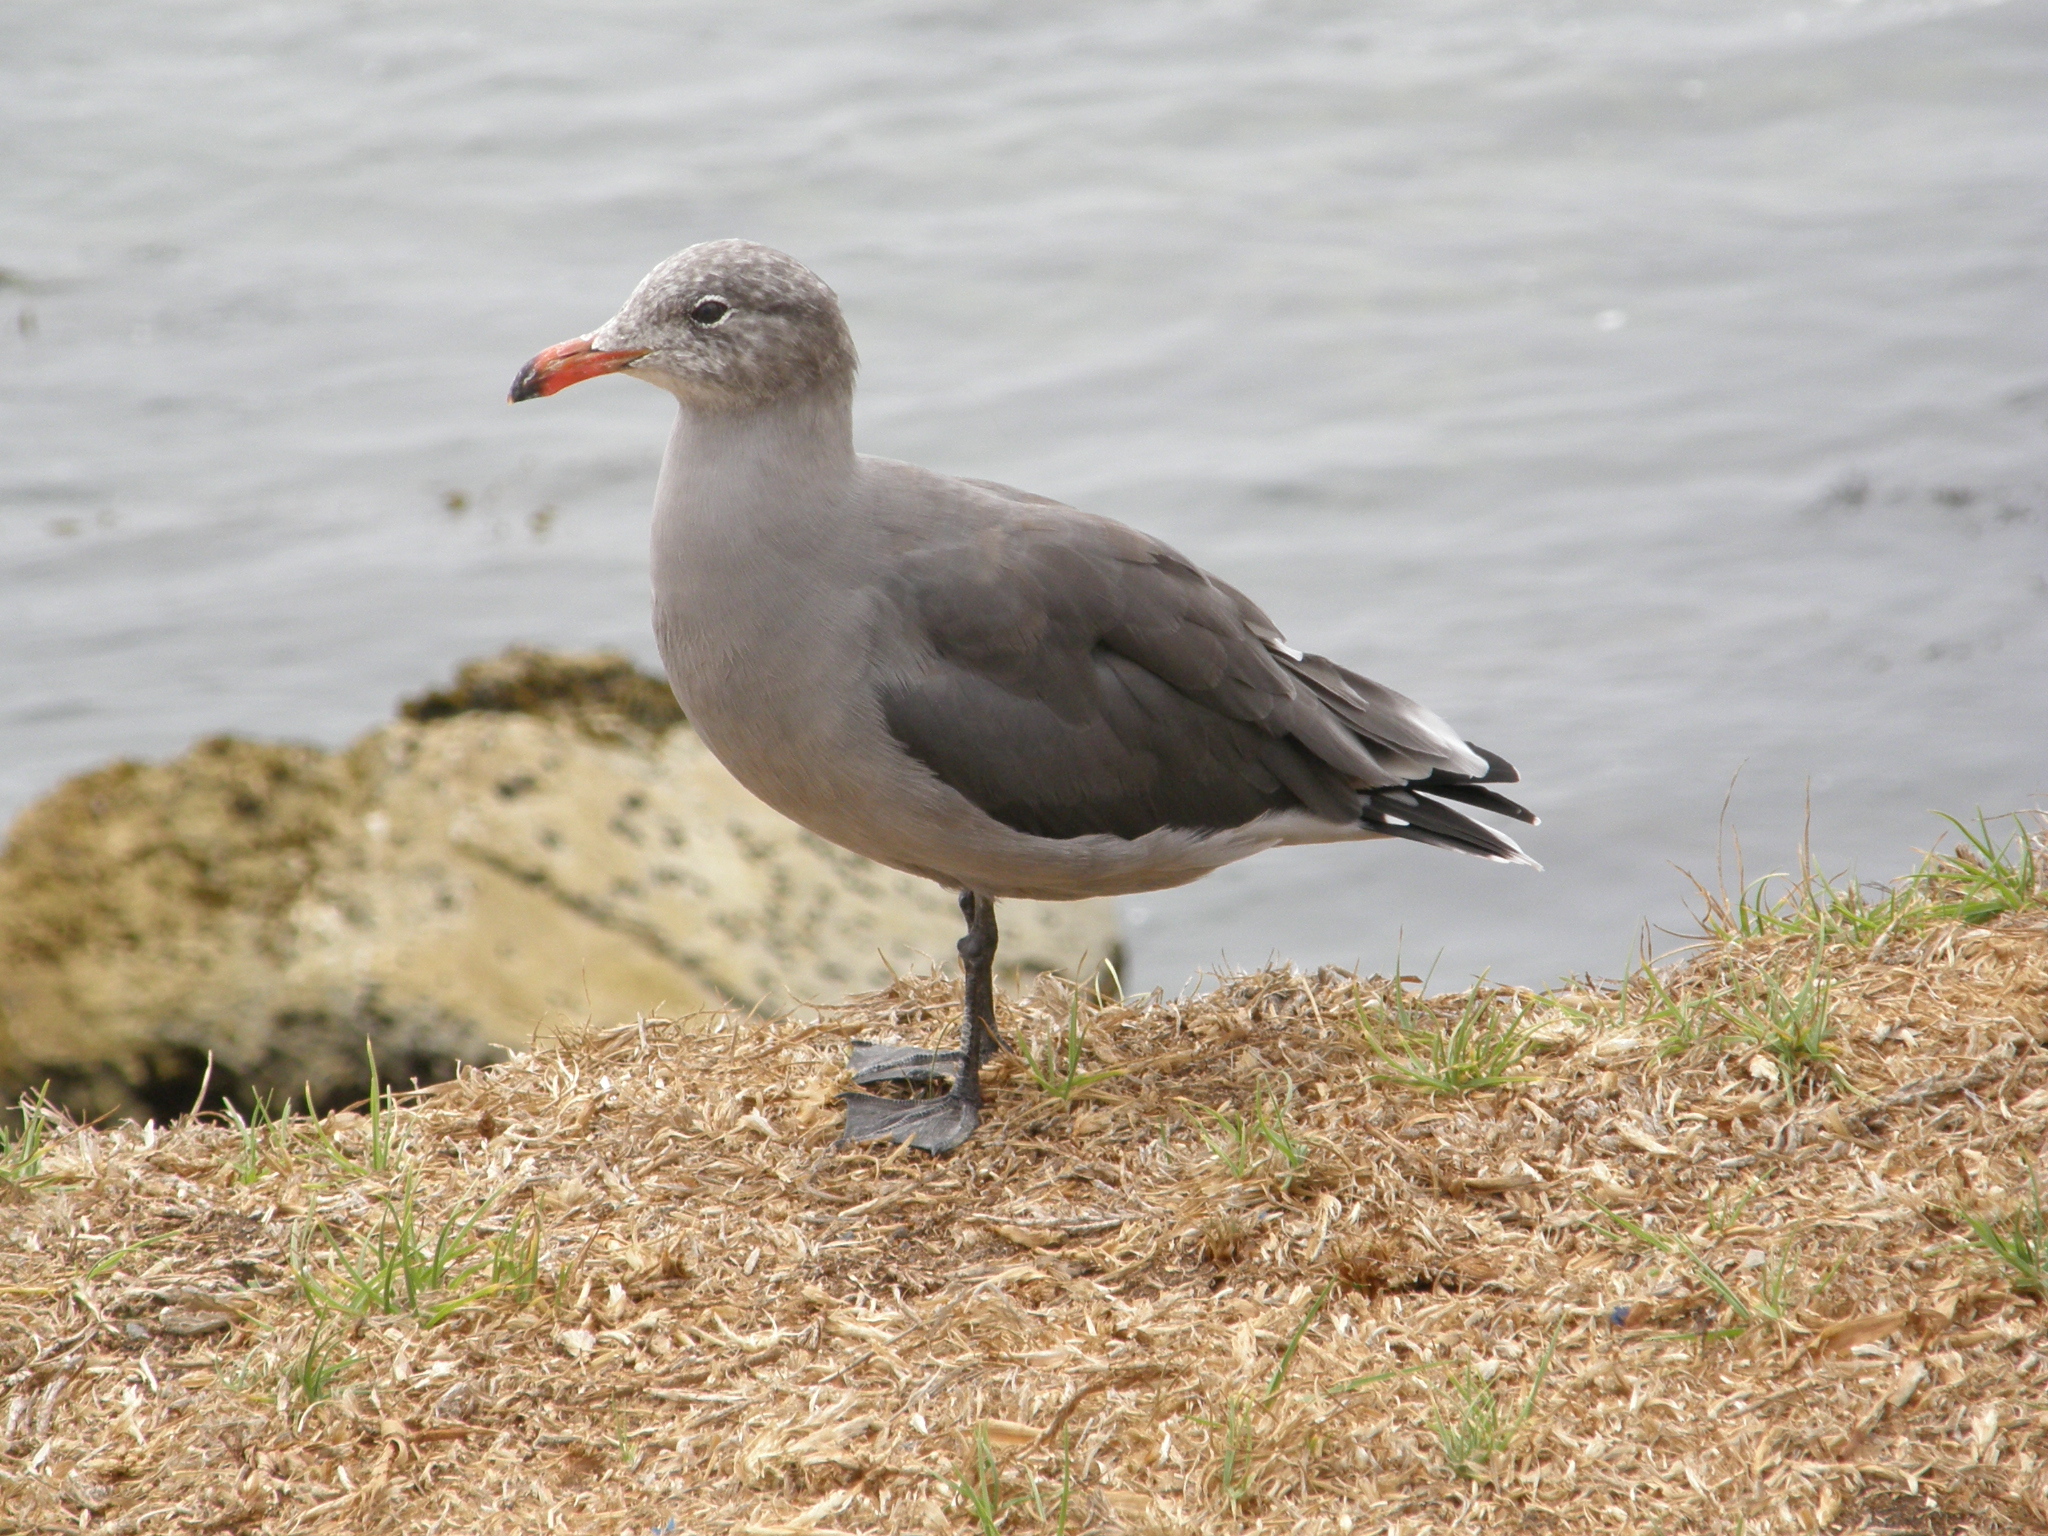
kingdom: Animalia
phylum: Chordata
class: Aves
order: Charadriiformes
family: Laridae
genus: Larus
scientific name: Larus heermanni
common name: Heermann's gull
